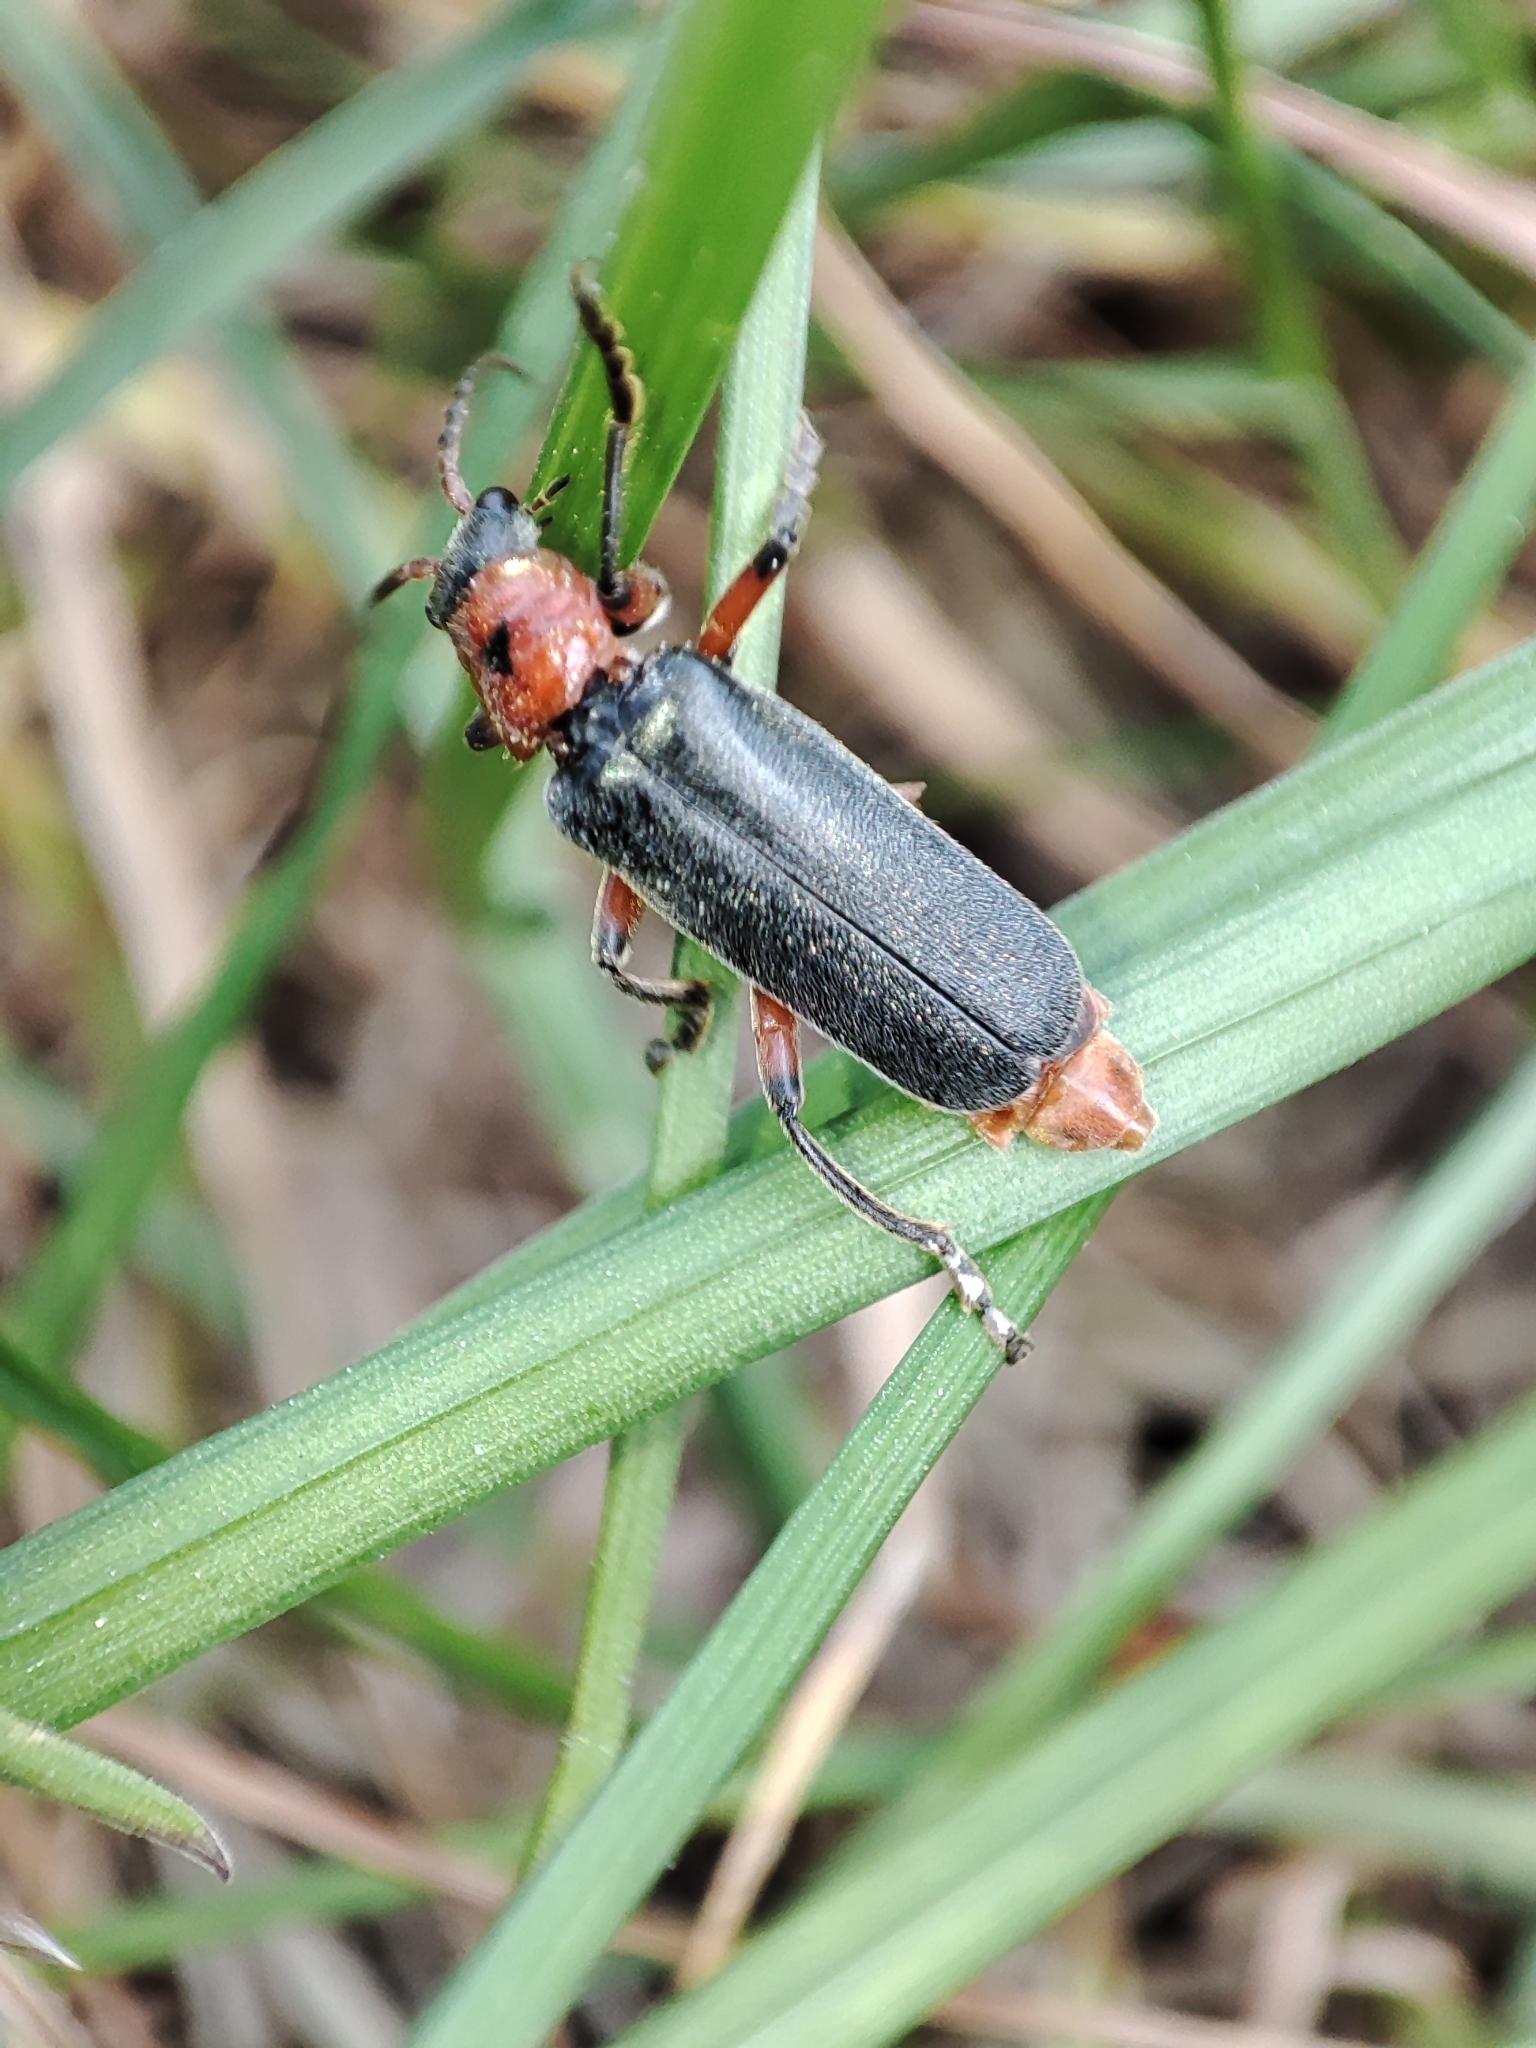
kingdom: Animalia
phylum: Arthropoda
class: Insecta
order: Coleoptera
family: Cantharidae
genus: Cantharis
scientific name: Cantharis rustica
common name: Soldier beetle
